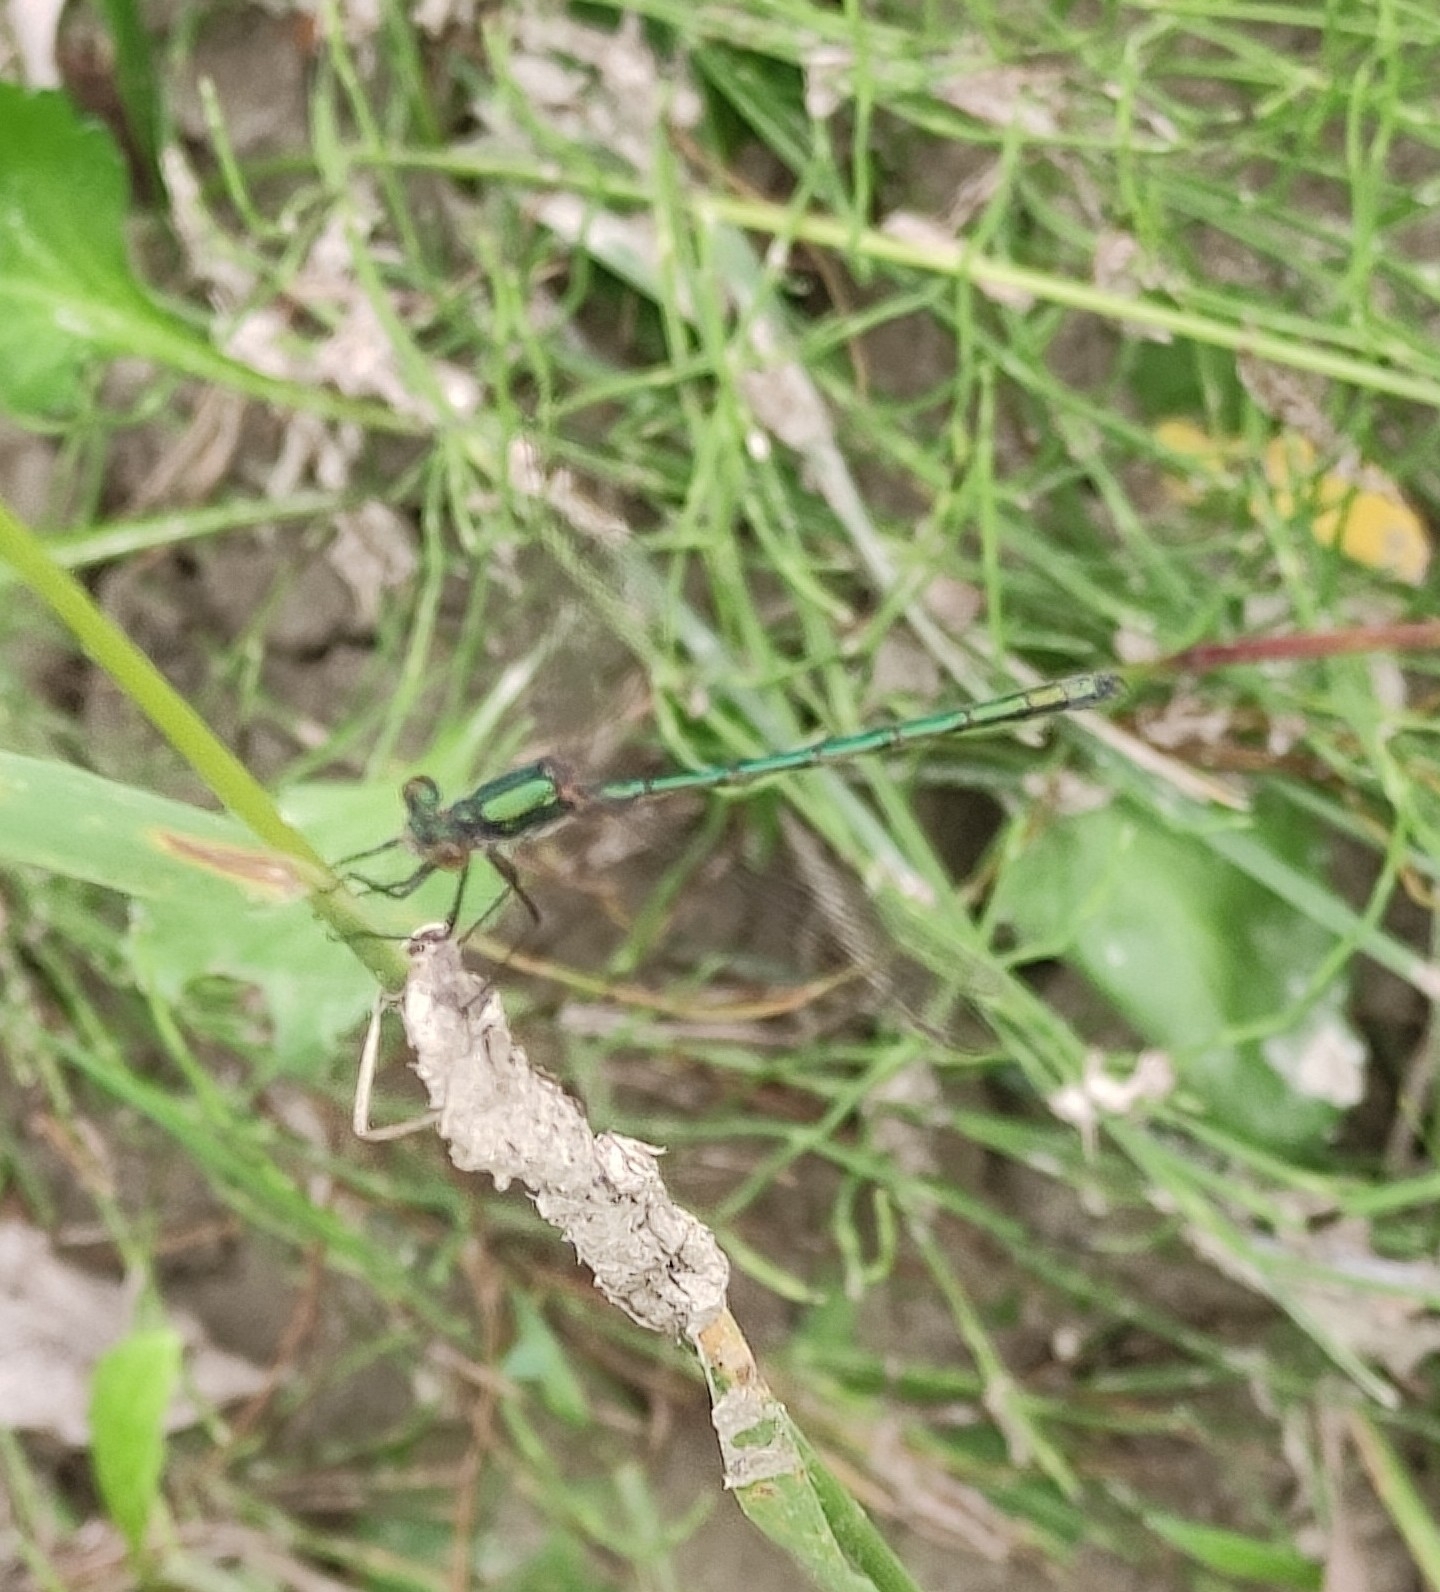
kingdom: Animalia
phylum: Arthropoda
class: Insecta
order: Odonata
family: Lestidae
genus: Lestes
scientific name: Lestes dryas
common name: Scarce emerald damselfly
